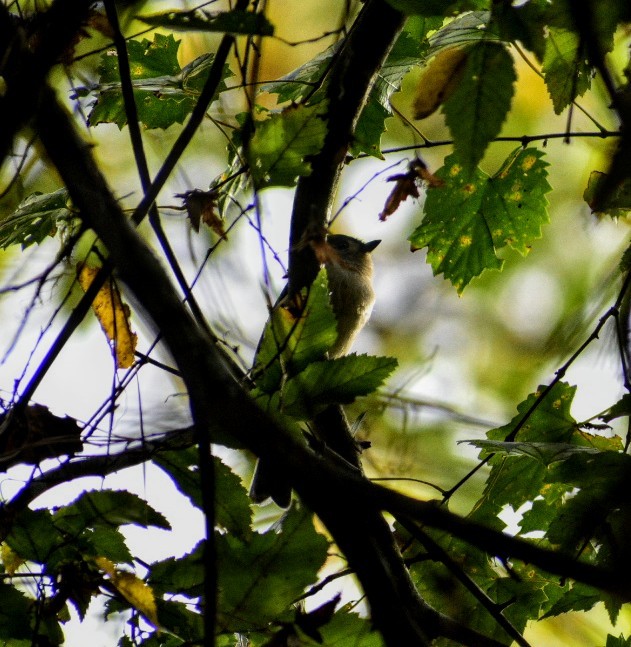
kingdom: Animalia
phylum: Chordata
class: Aves
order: Passeriformes
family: Paridae
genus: Baeolophus
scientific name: Baeolophus bicolor
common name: Tufted titmouse
